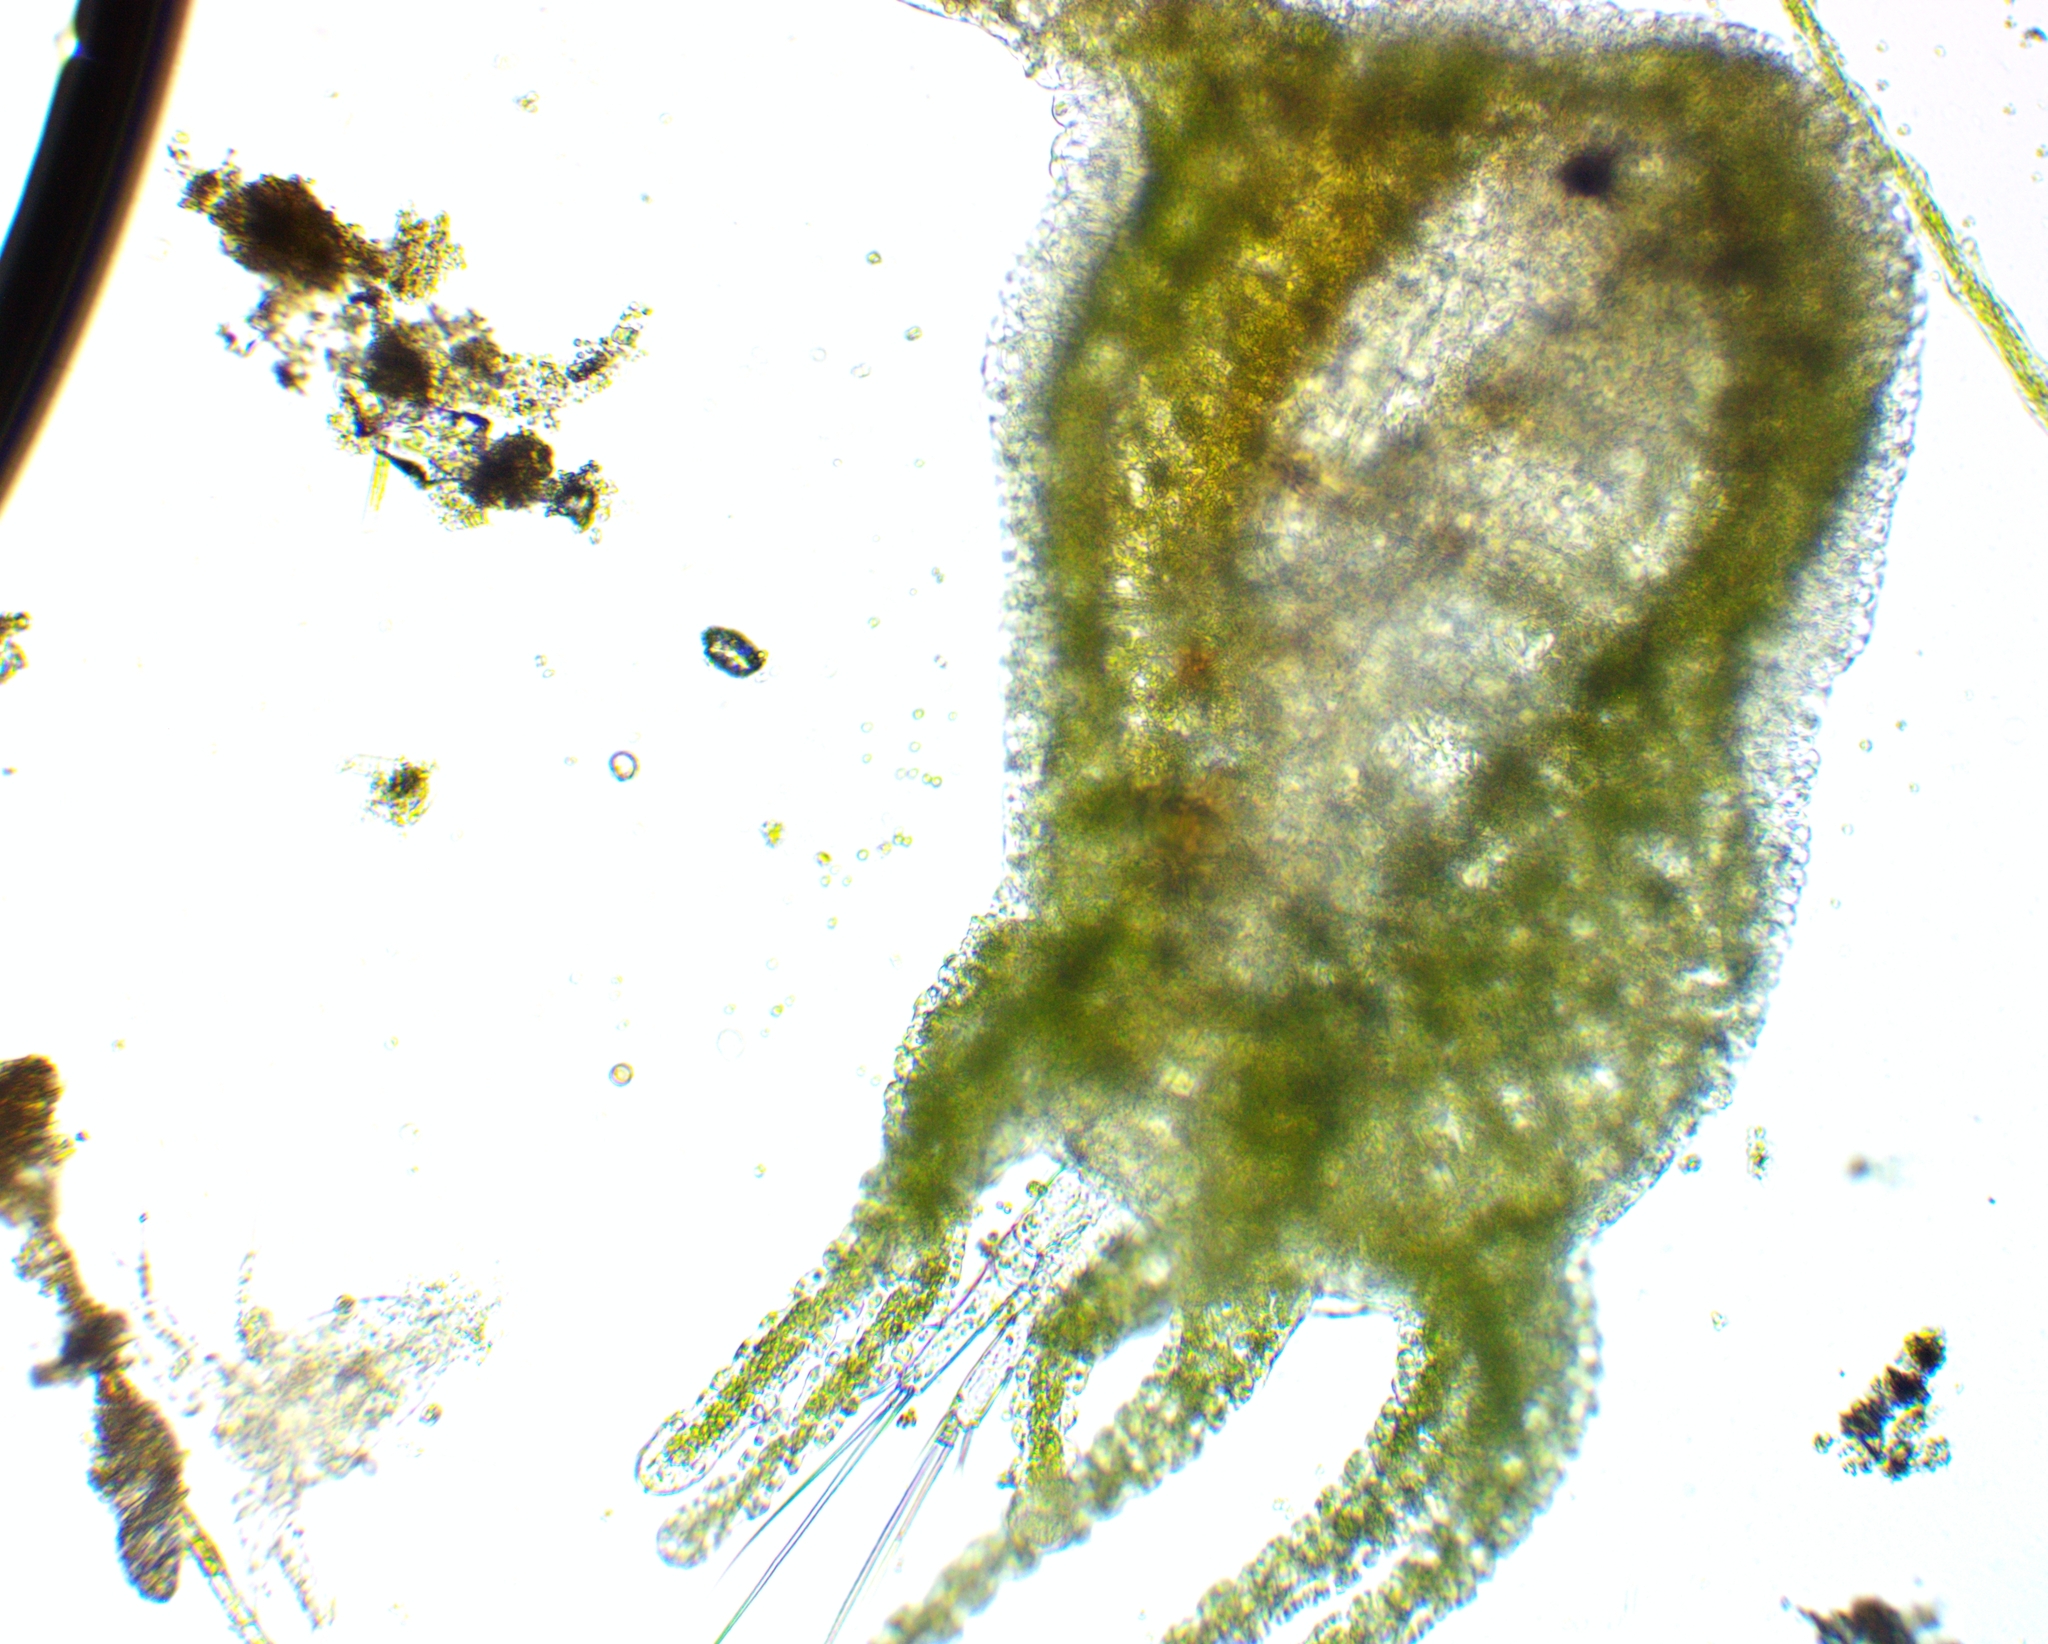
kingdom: Animalia
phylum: Cnidaria
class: Hydrozoa
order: Anthoathecata
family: Hydridae
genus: Hydra
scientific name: Hydra viridissima
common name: Green hydra
